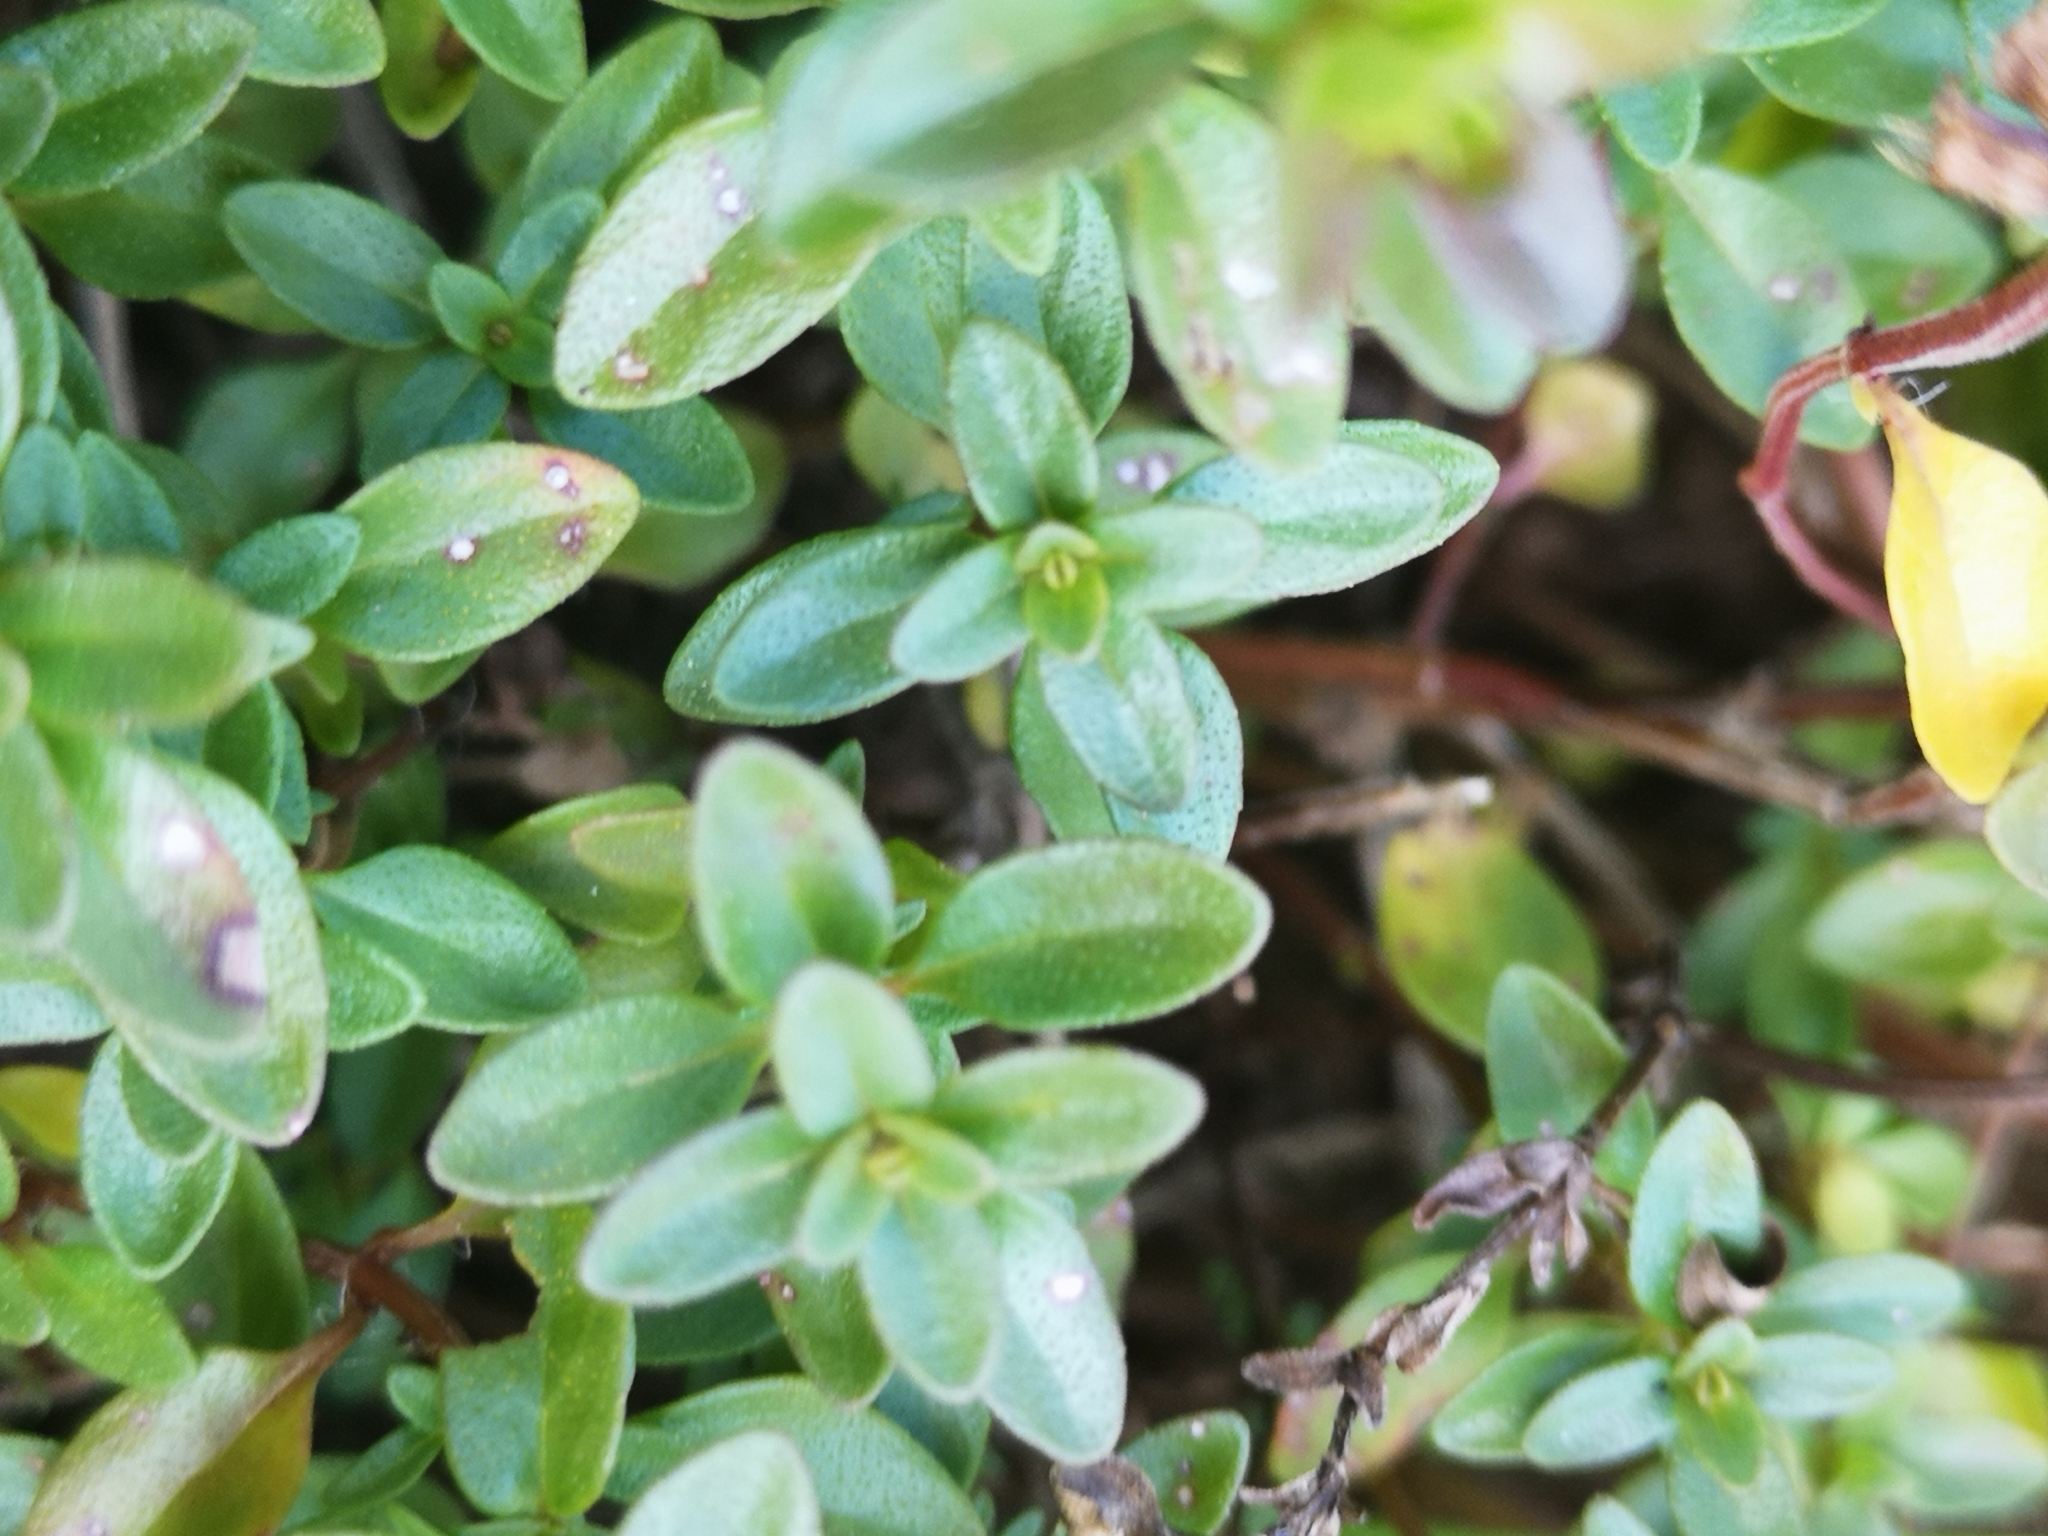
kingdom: Plantae
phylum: Tracheophyta
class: Magnoliopsida
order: Lamiales
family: Lamiaceae
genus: Thymus
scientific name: Thymus pulegioides
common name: Large thyme
